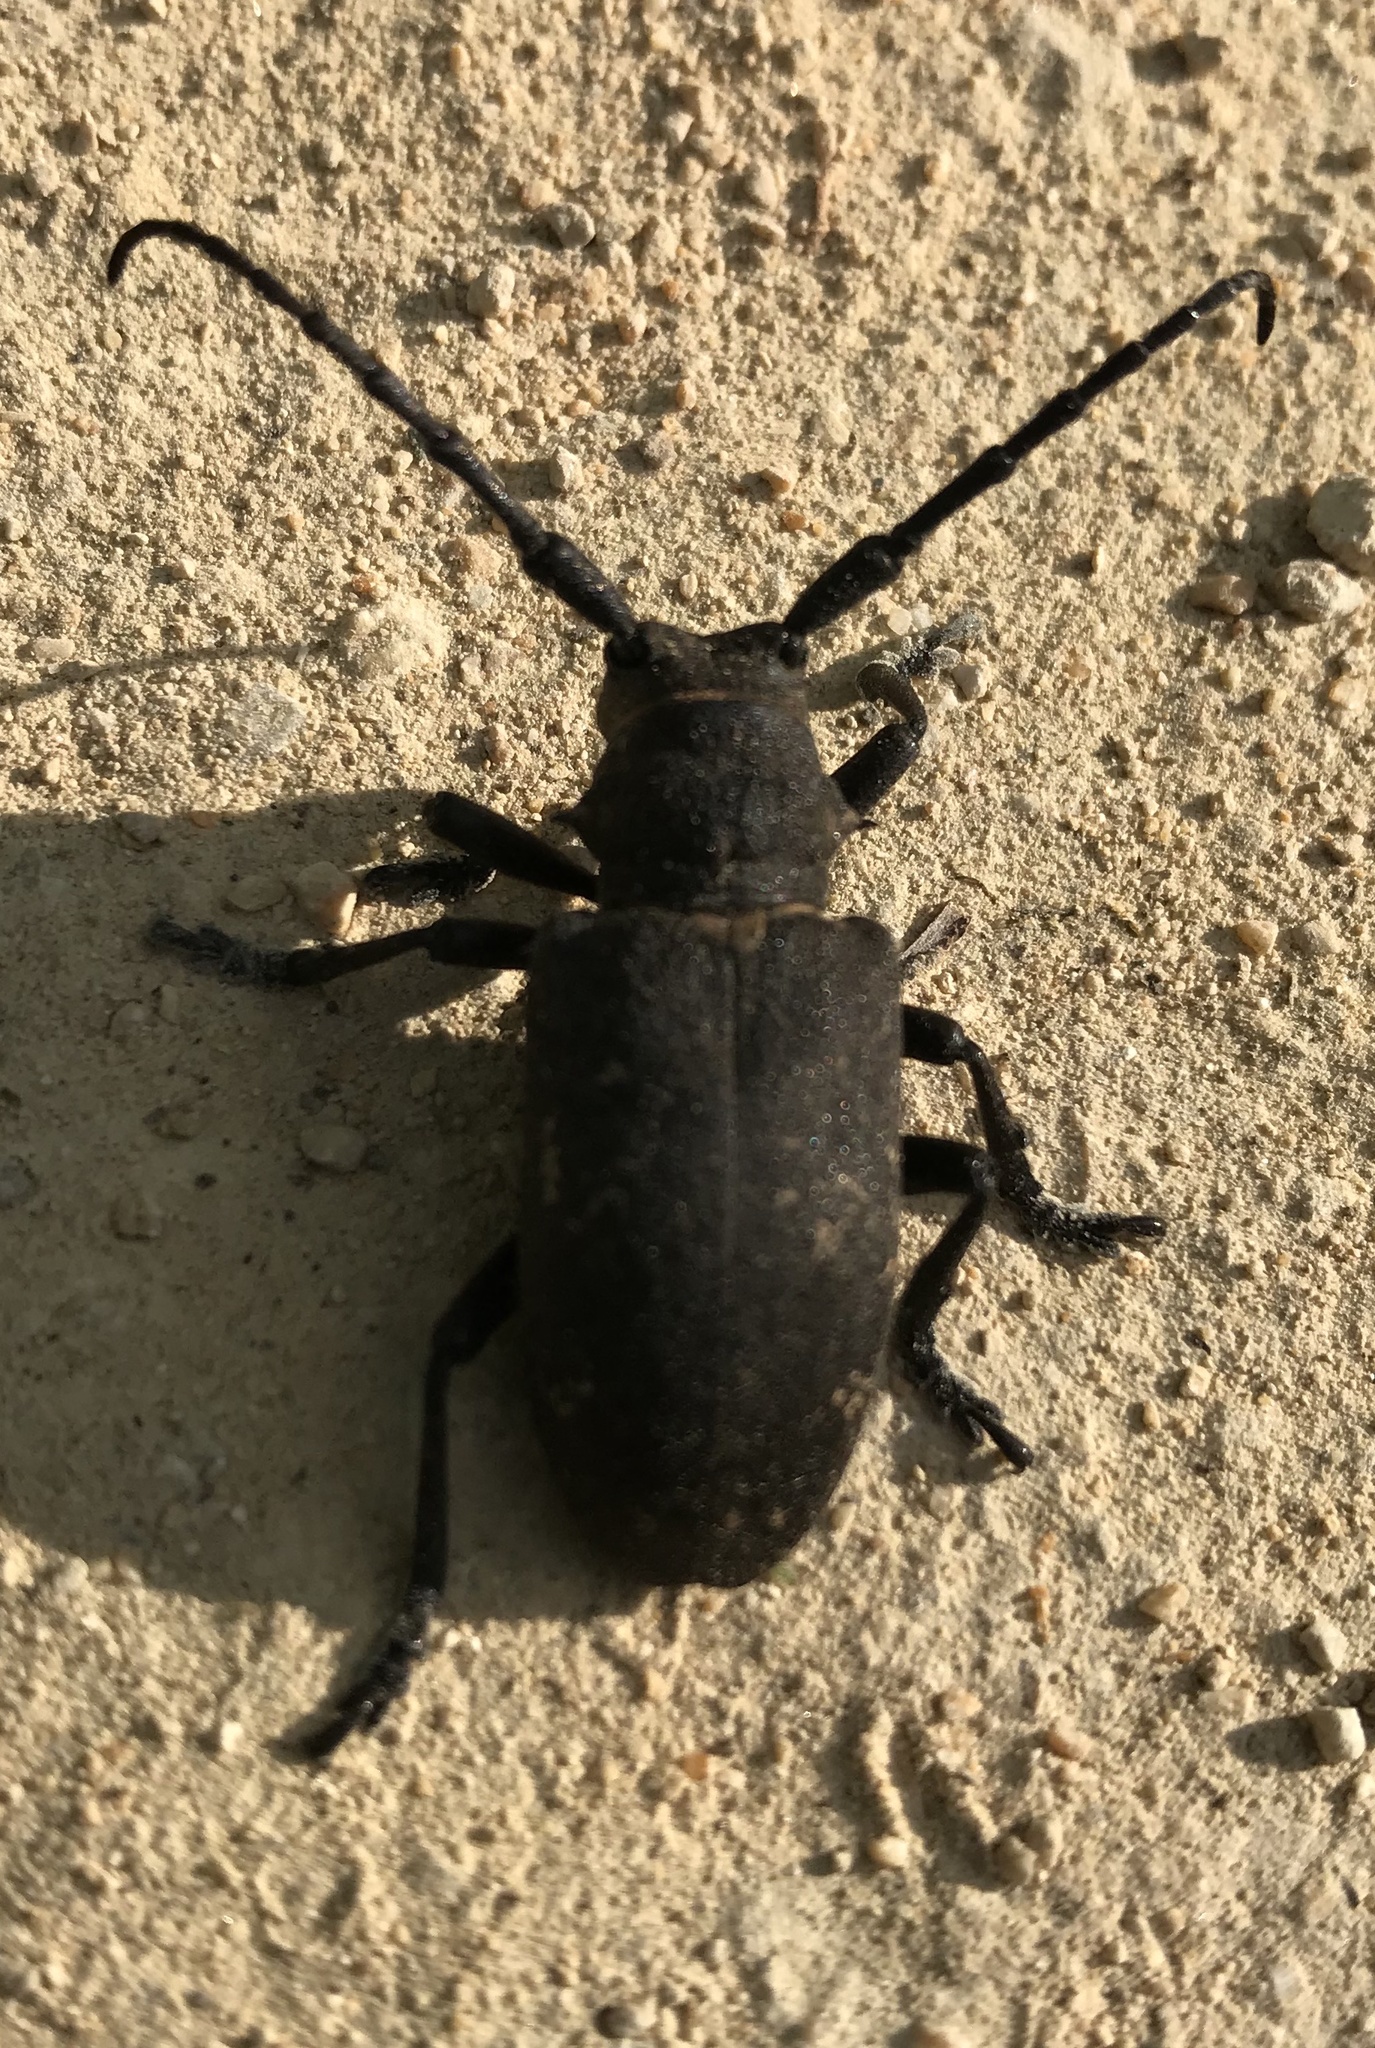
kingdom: Animalia
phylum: Arthropoda
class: Insecta
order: Coleoptera
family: Cerambycidae
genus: Lamia
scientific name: Lamia textor
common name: Weaver beetle
